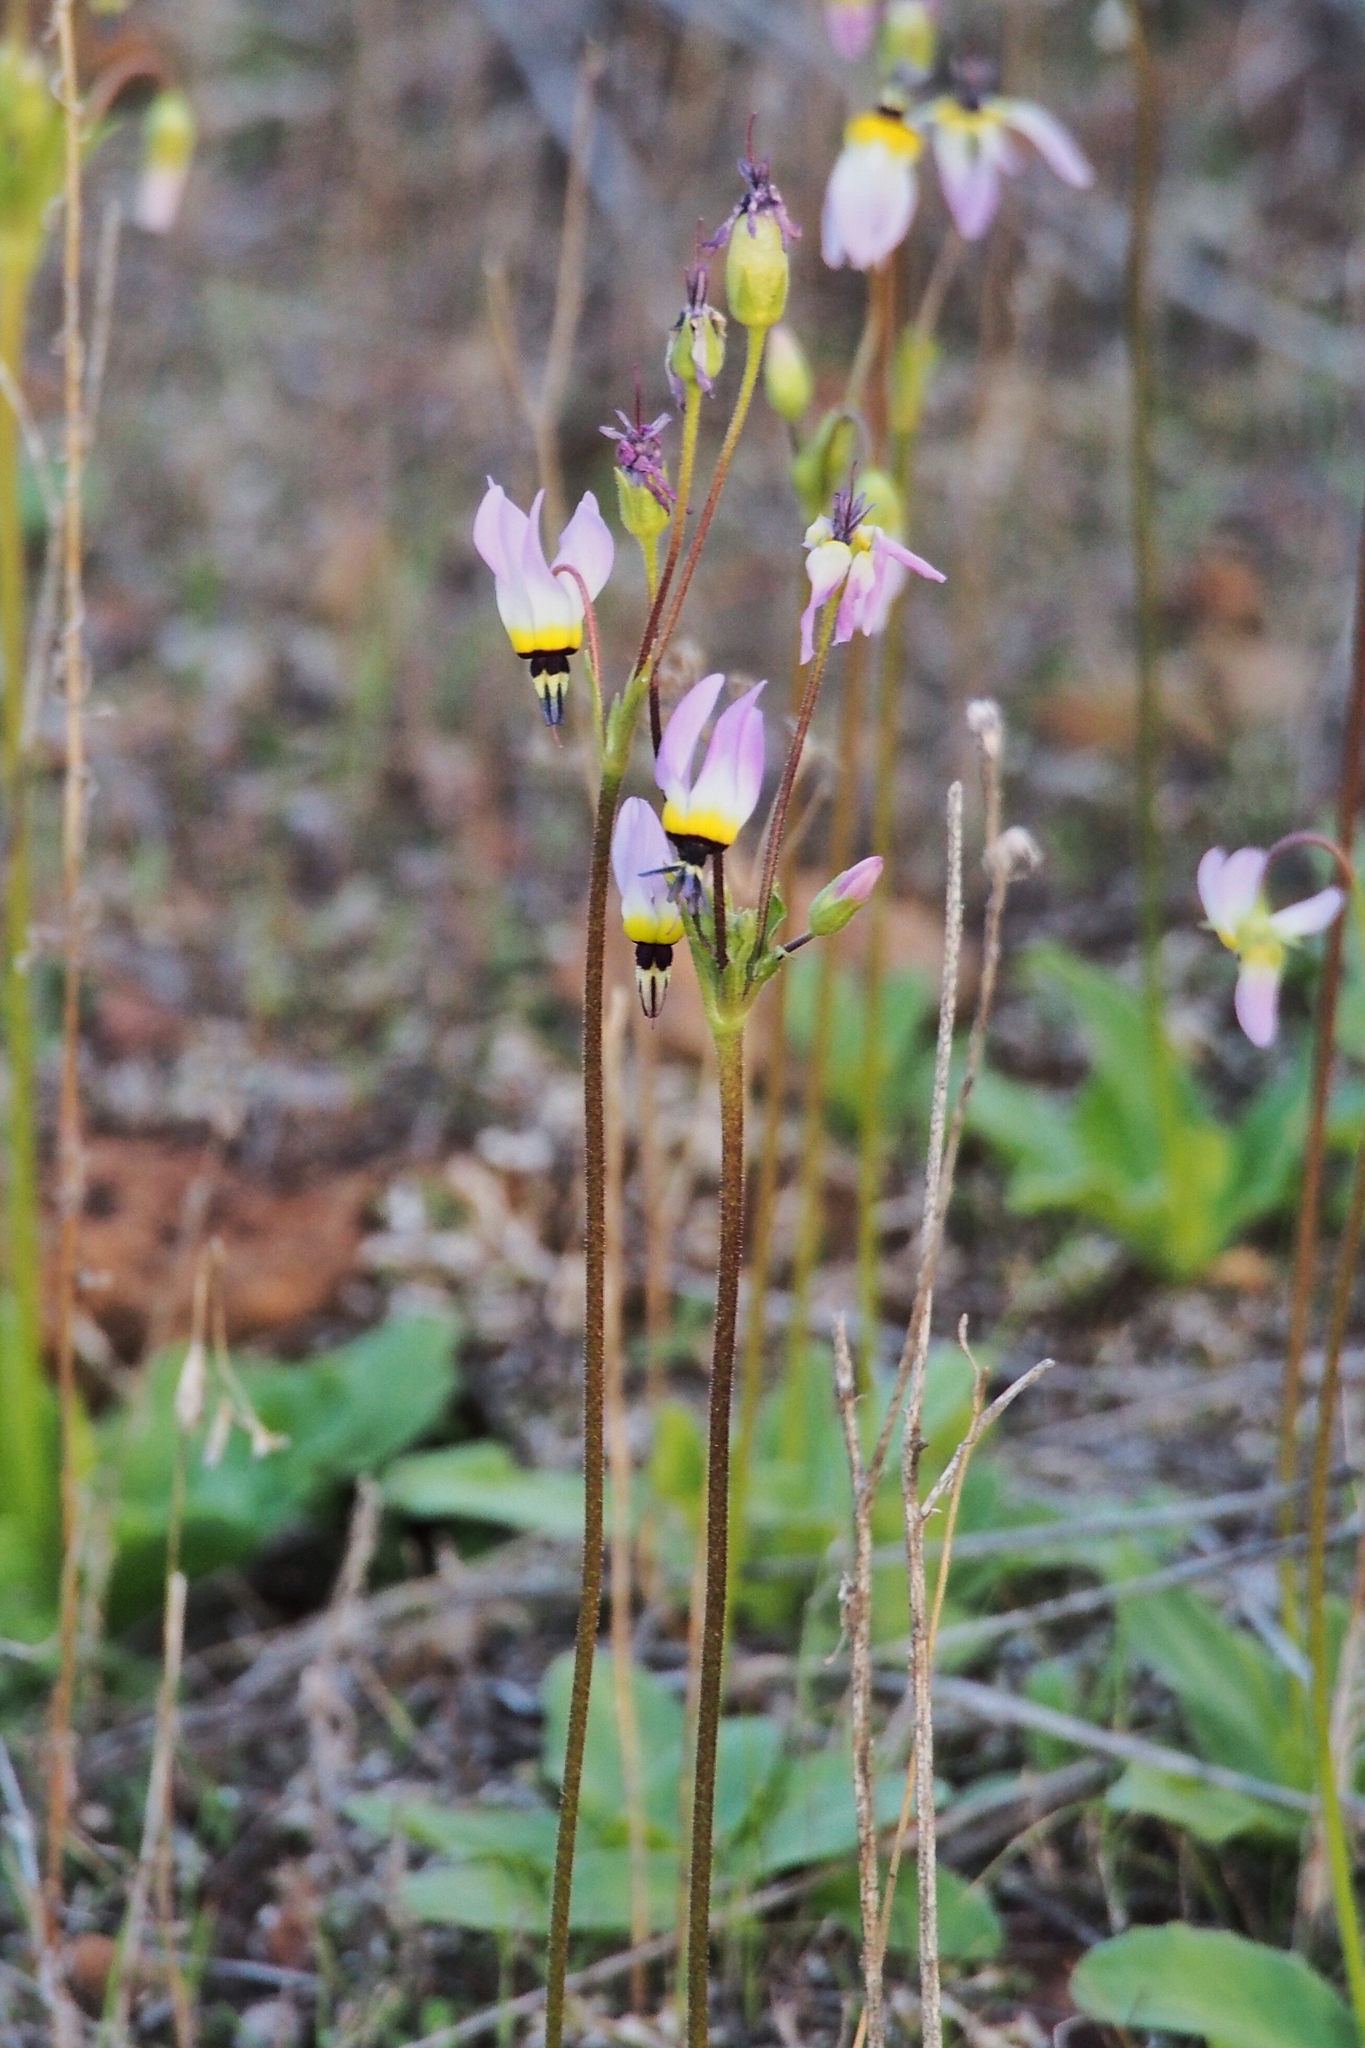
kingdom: Plantae
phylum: Tracheophyta
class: Magnoliopsida
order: Ericales
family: Primulaceae
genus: Dodecatheon
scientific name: Dodecatheon clevelandii
